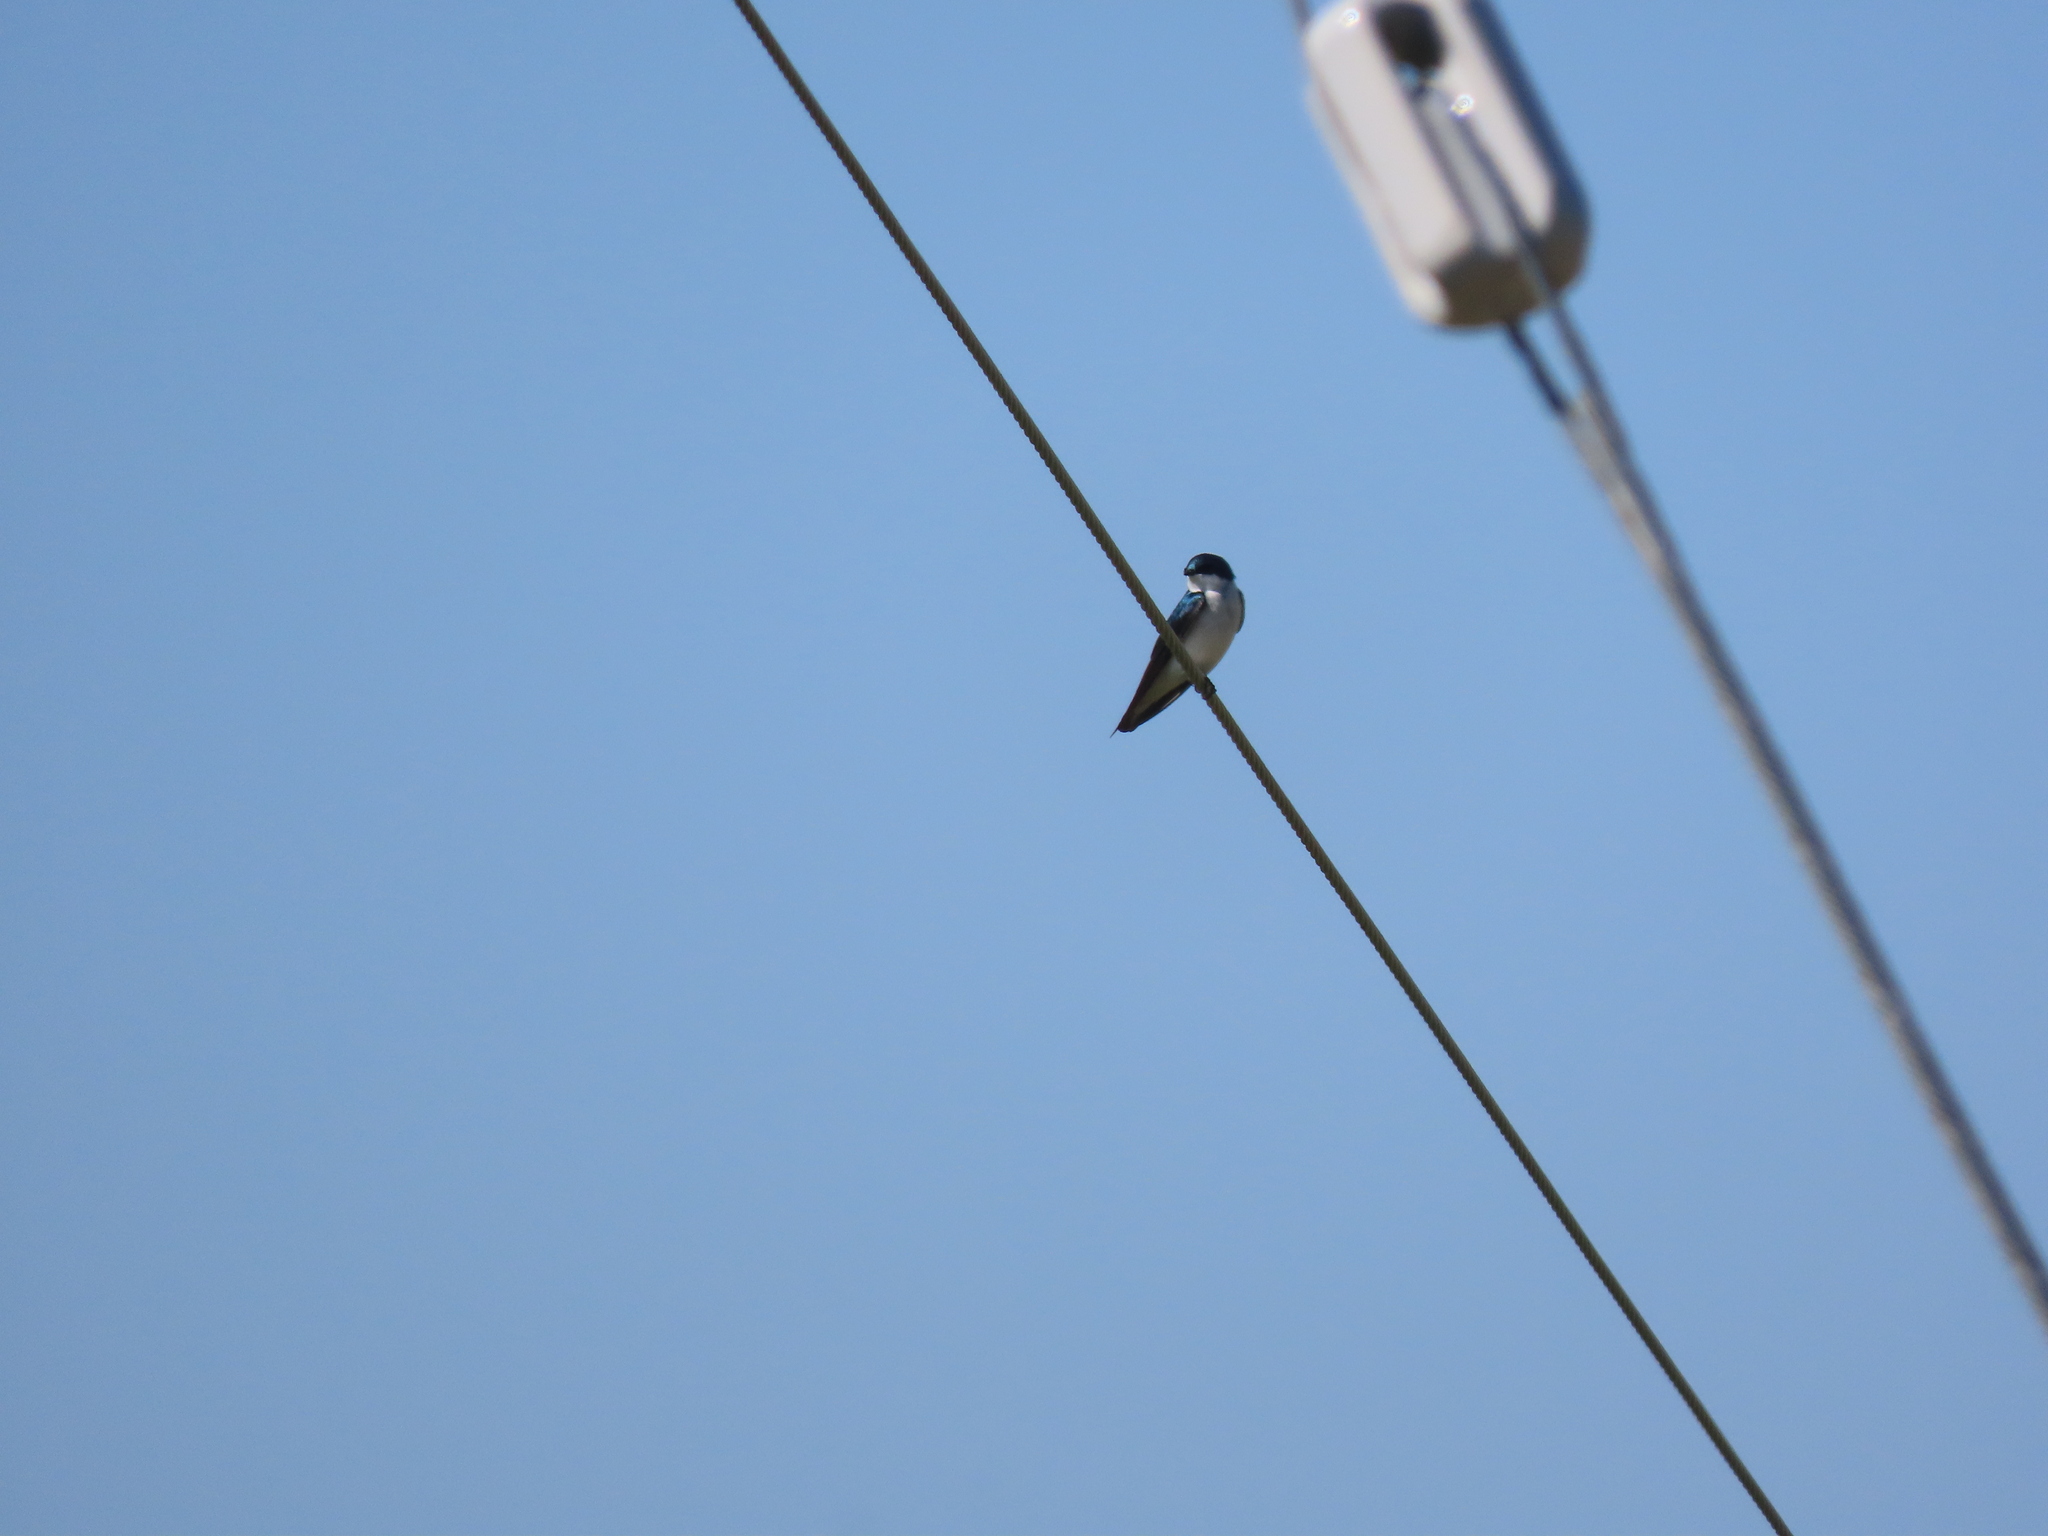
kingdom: Animalia
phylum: Chordata
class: Aves
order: Passeriformes
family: Hirundinidae
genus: Tachycineta
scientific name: Tachycineta bicolor
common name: Tree swallow
